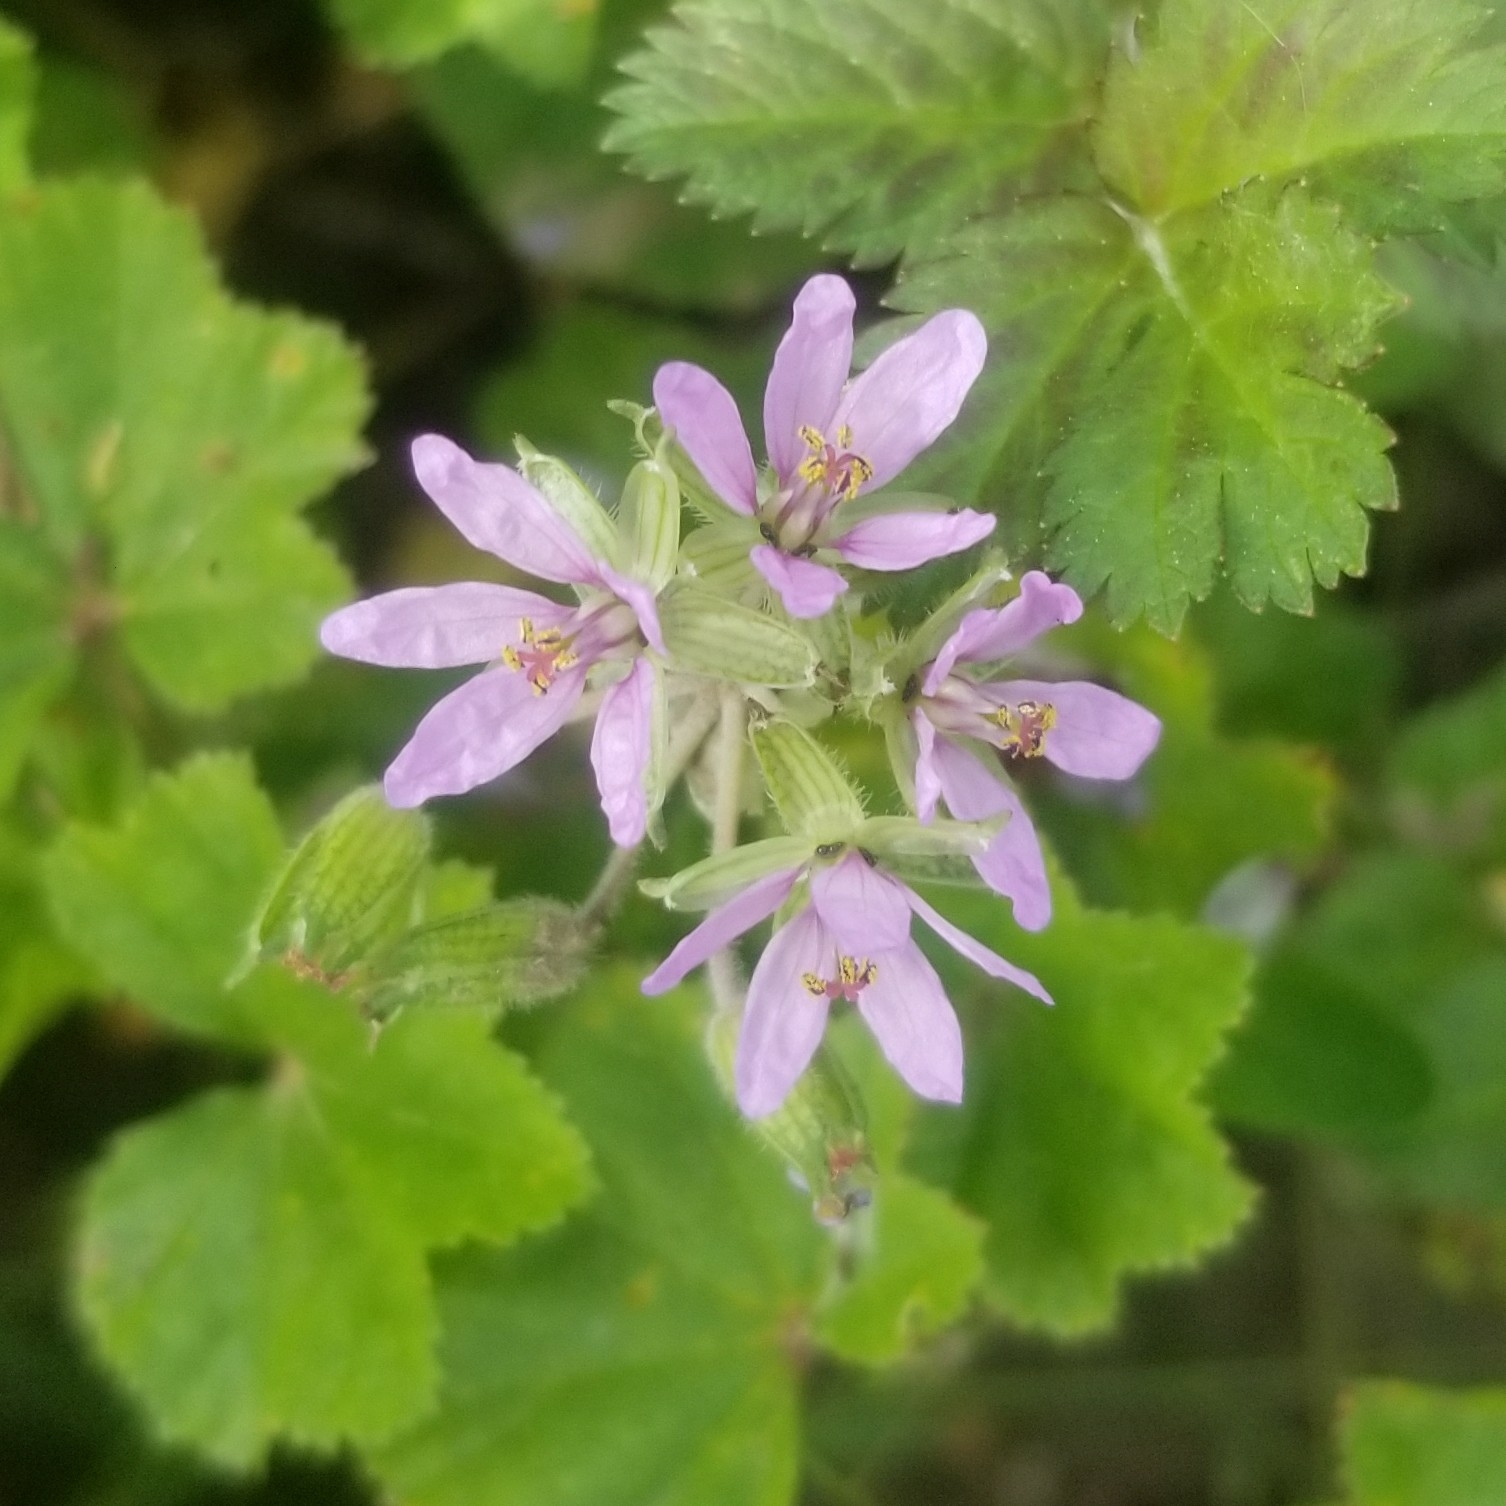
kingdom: Plantae
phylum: Tracheophyta
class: Magnoliopsida
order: Geraniales
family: Geraniaceae
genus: Erodium
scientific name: Erodium moschatum
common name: Musk stork's-bill
